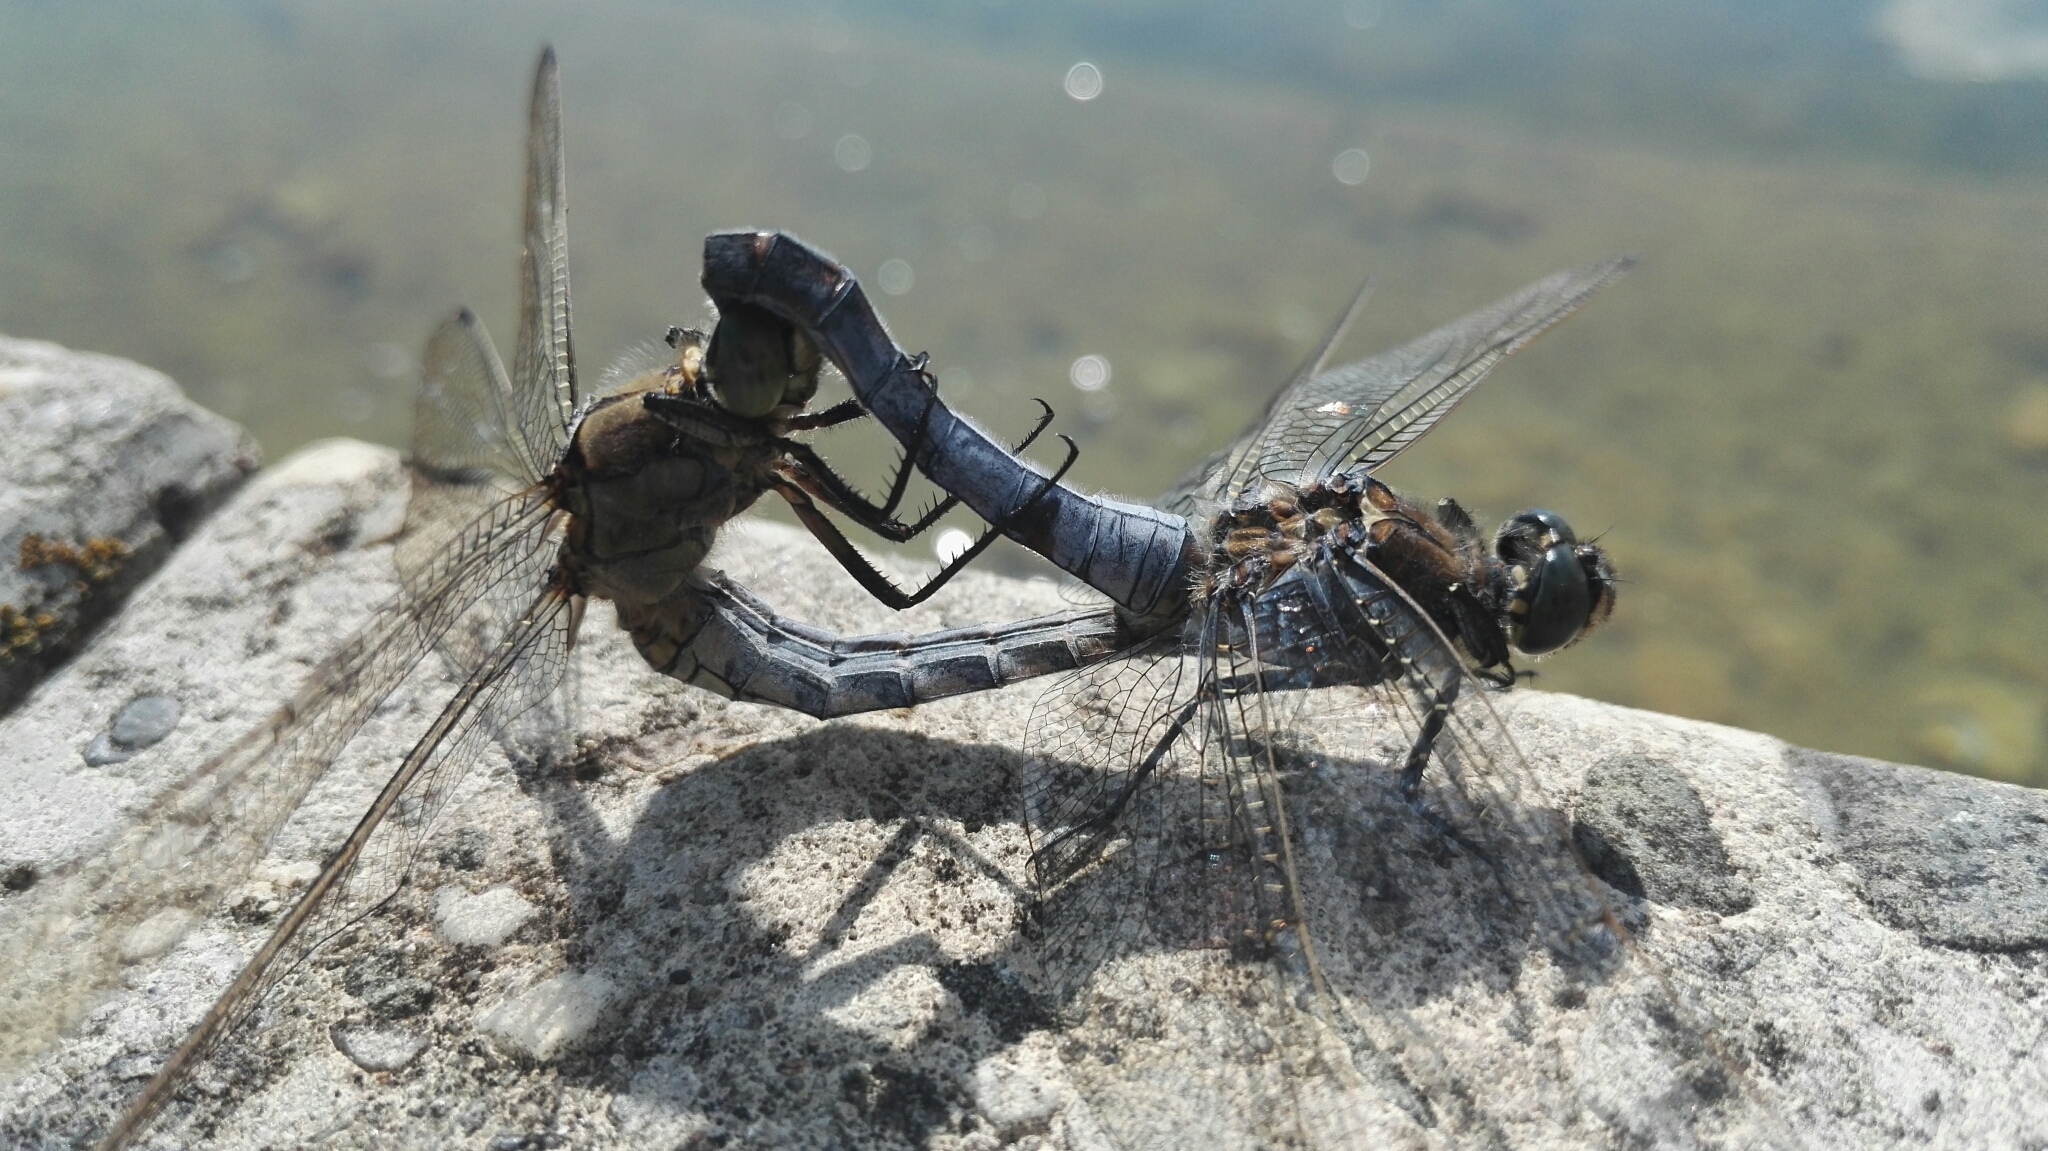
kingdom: Animalia
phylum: Arthropoda
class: Insecta
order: Odonata
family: Libellulidae
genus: Orthetrum
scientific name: Orthetrum cancellatum
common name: Black-tailed skimmer
